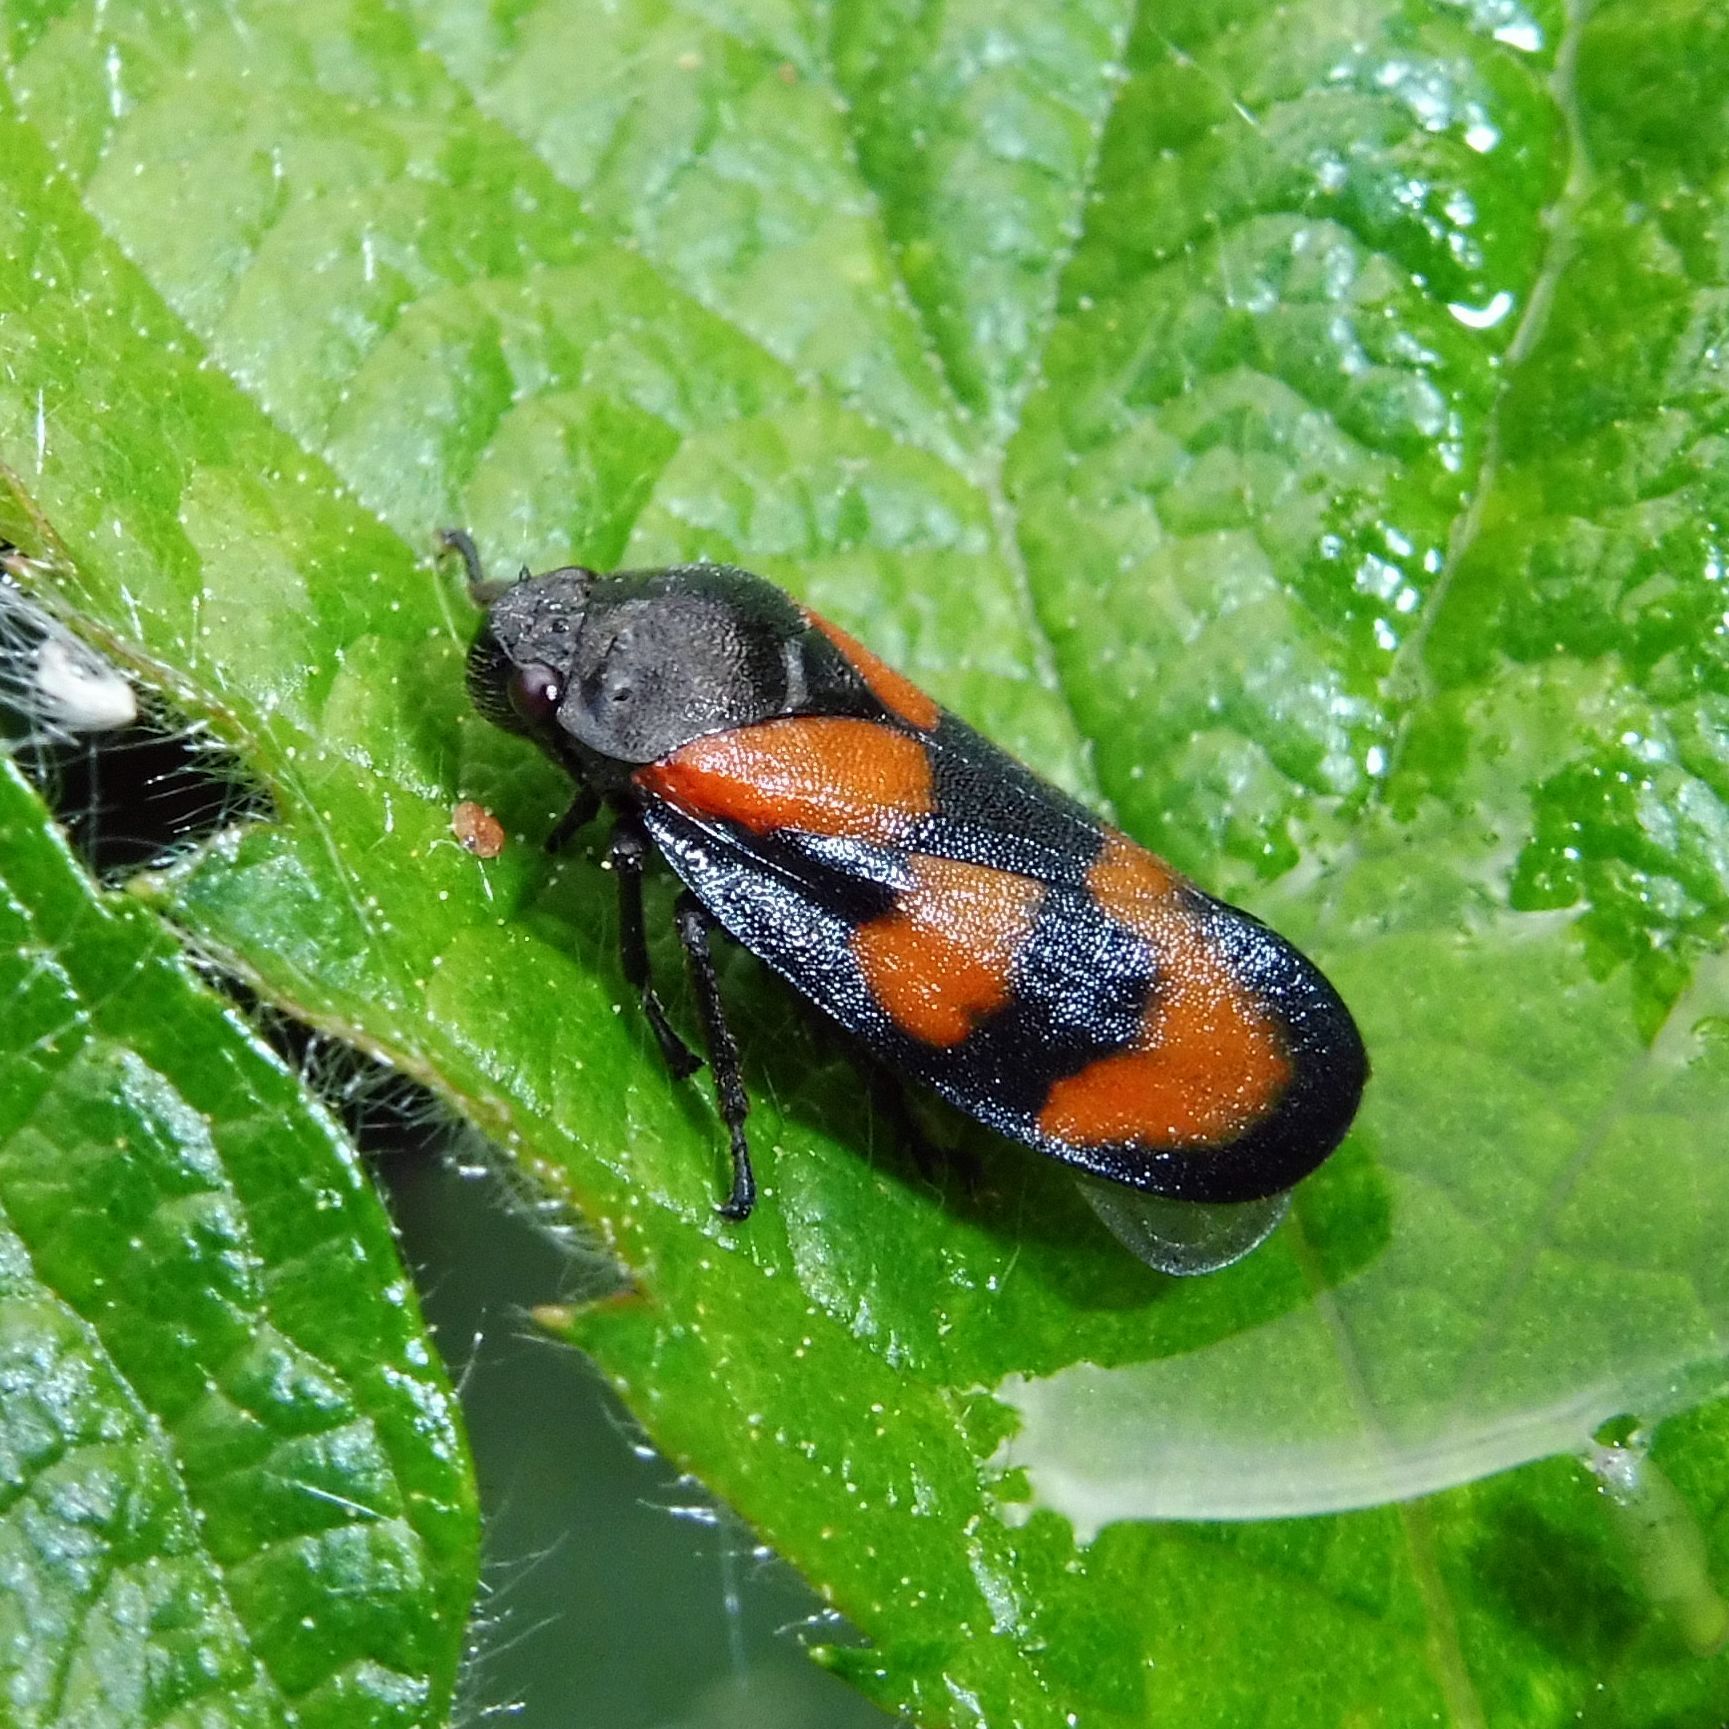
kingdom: Animalia
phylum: Arthropoda
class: Insecta
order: Hemiptera
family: Cercopidae
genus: Cercopis
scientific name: Cercopis vulnerata
